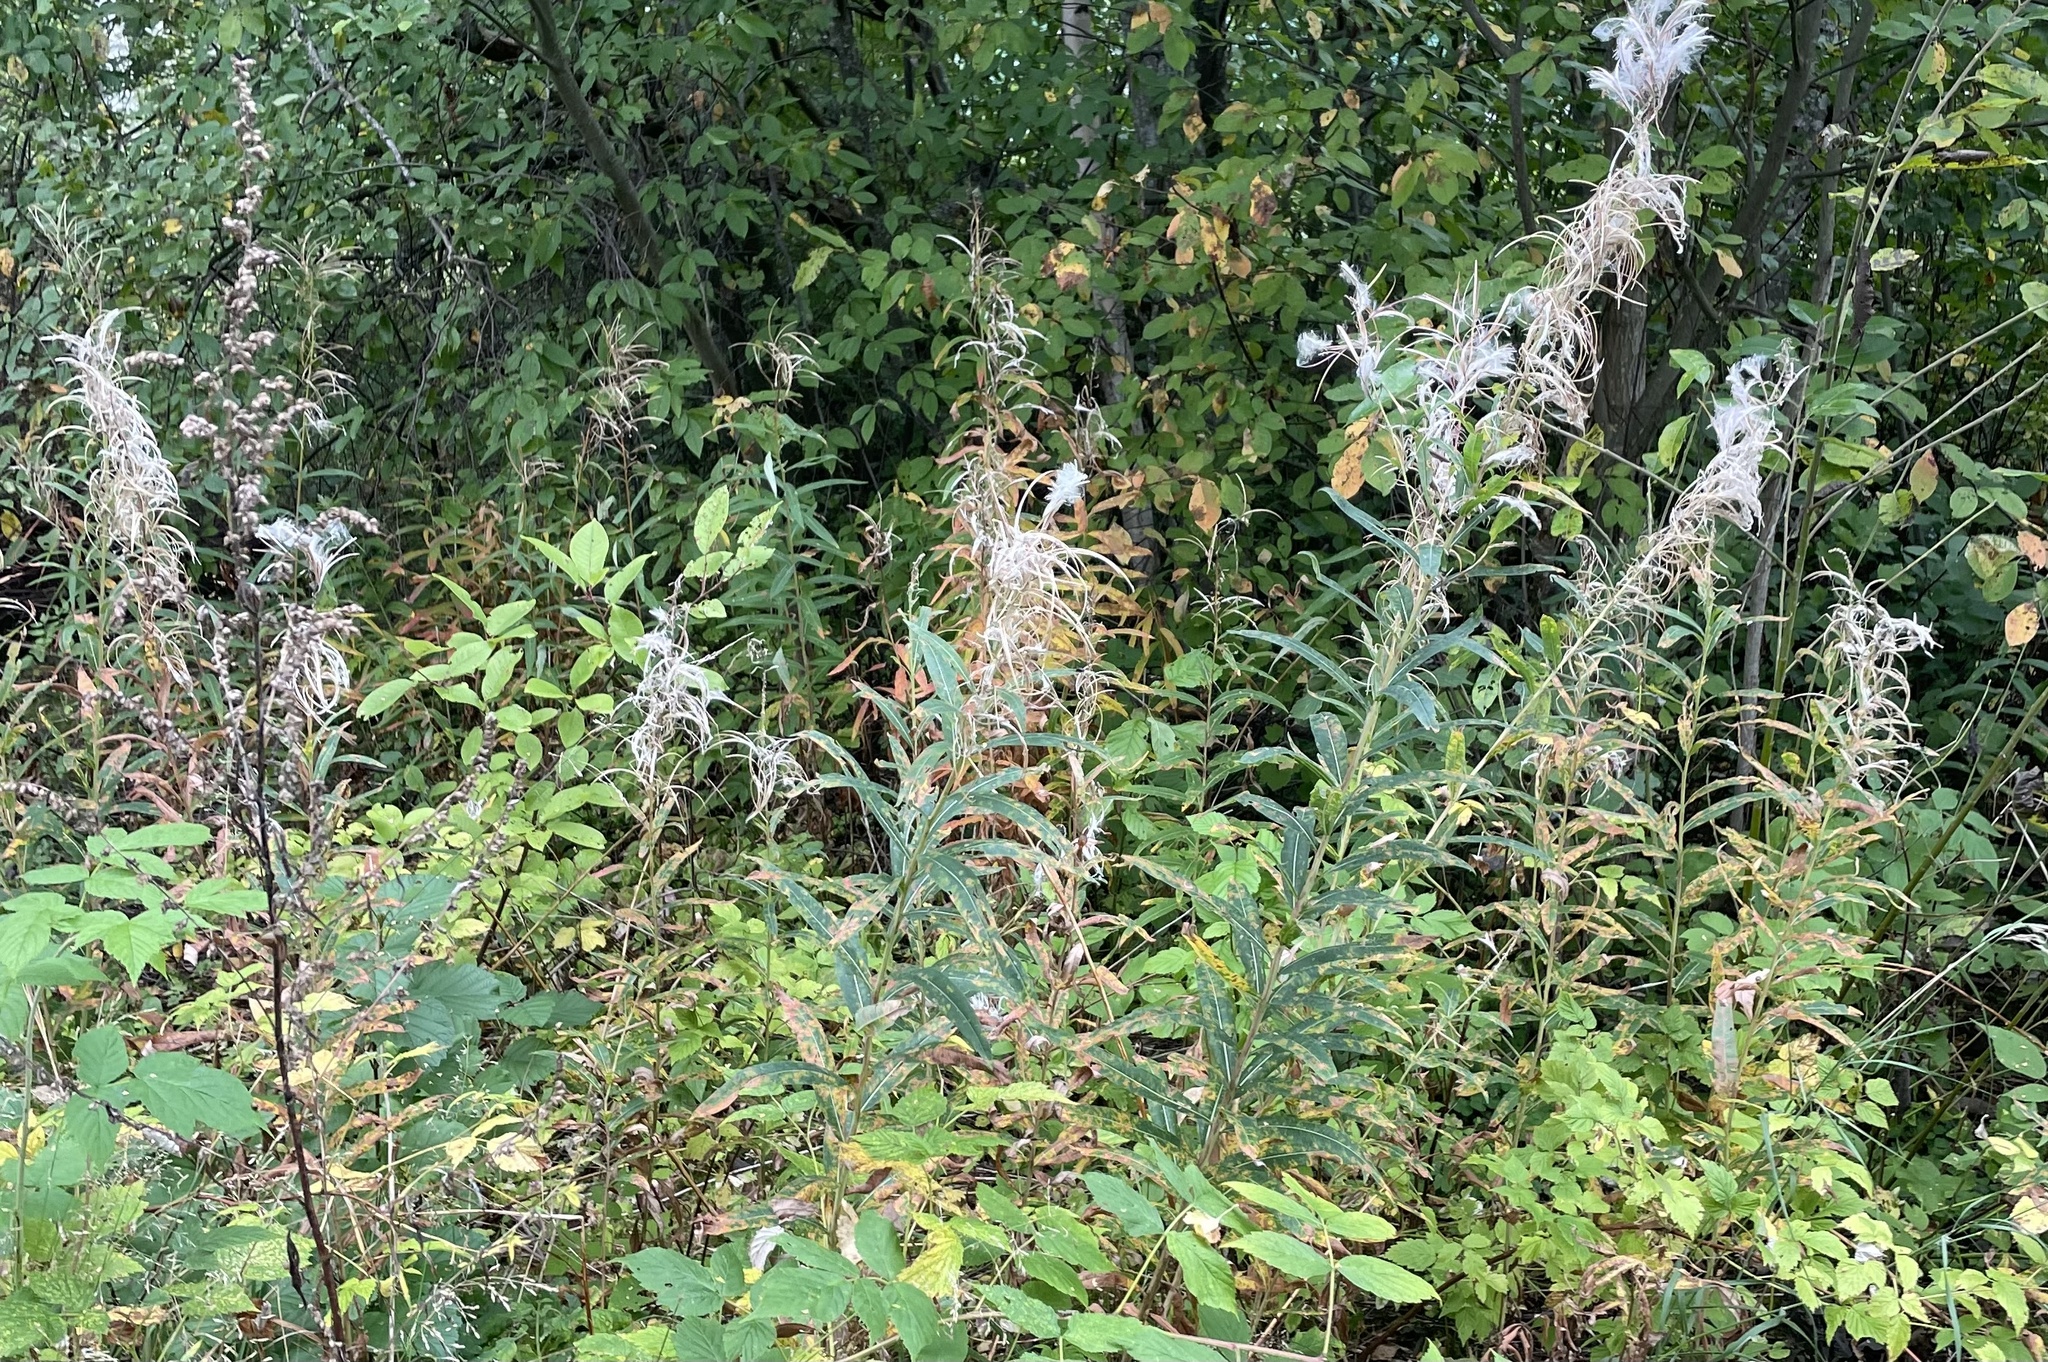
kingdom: Plantae
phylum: Tracheophyta
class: Magnoliopsida
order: Myrtales
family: Onagraceae
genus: Chamaenerion
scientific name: Chamaenerion angustifolium
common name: Fireweed
